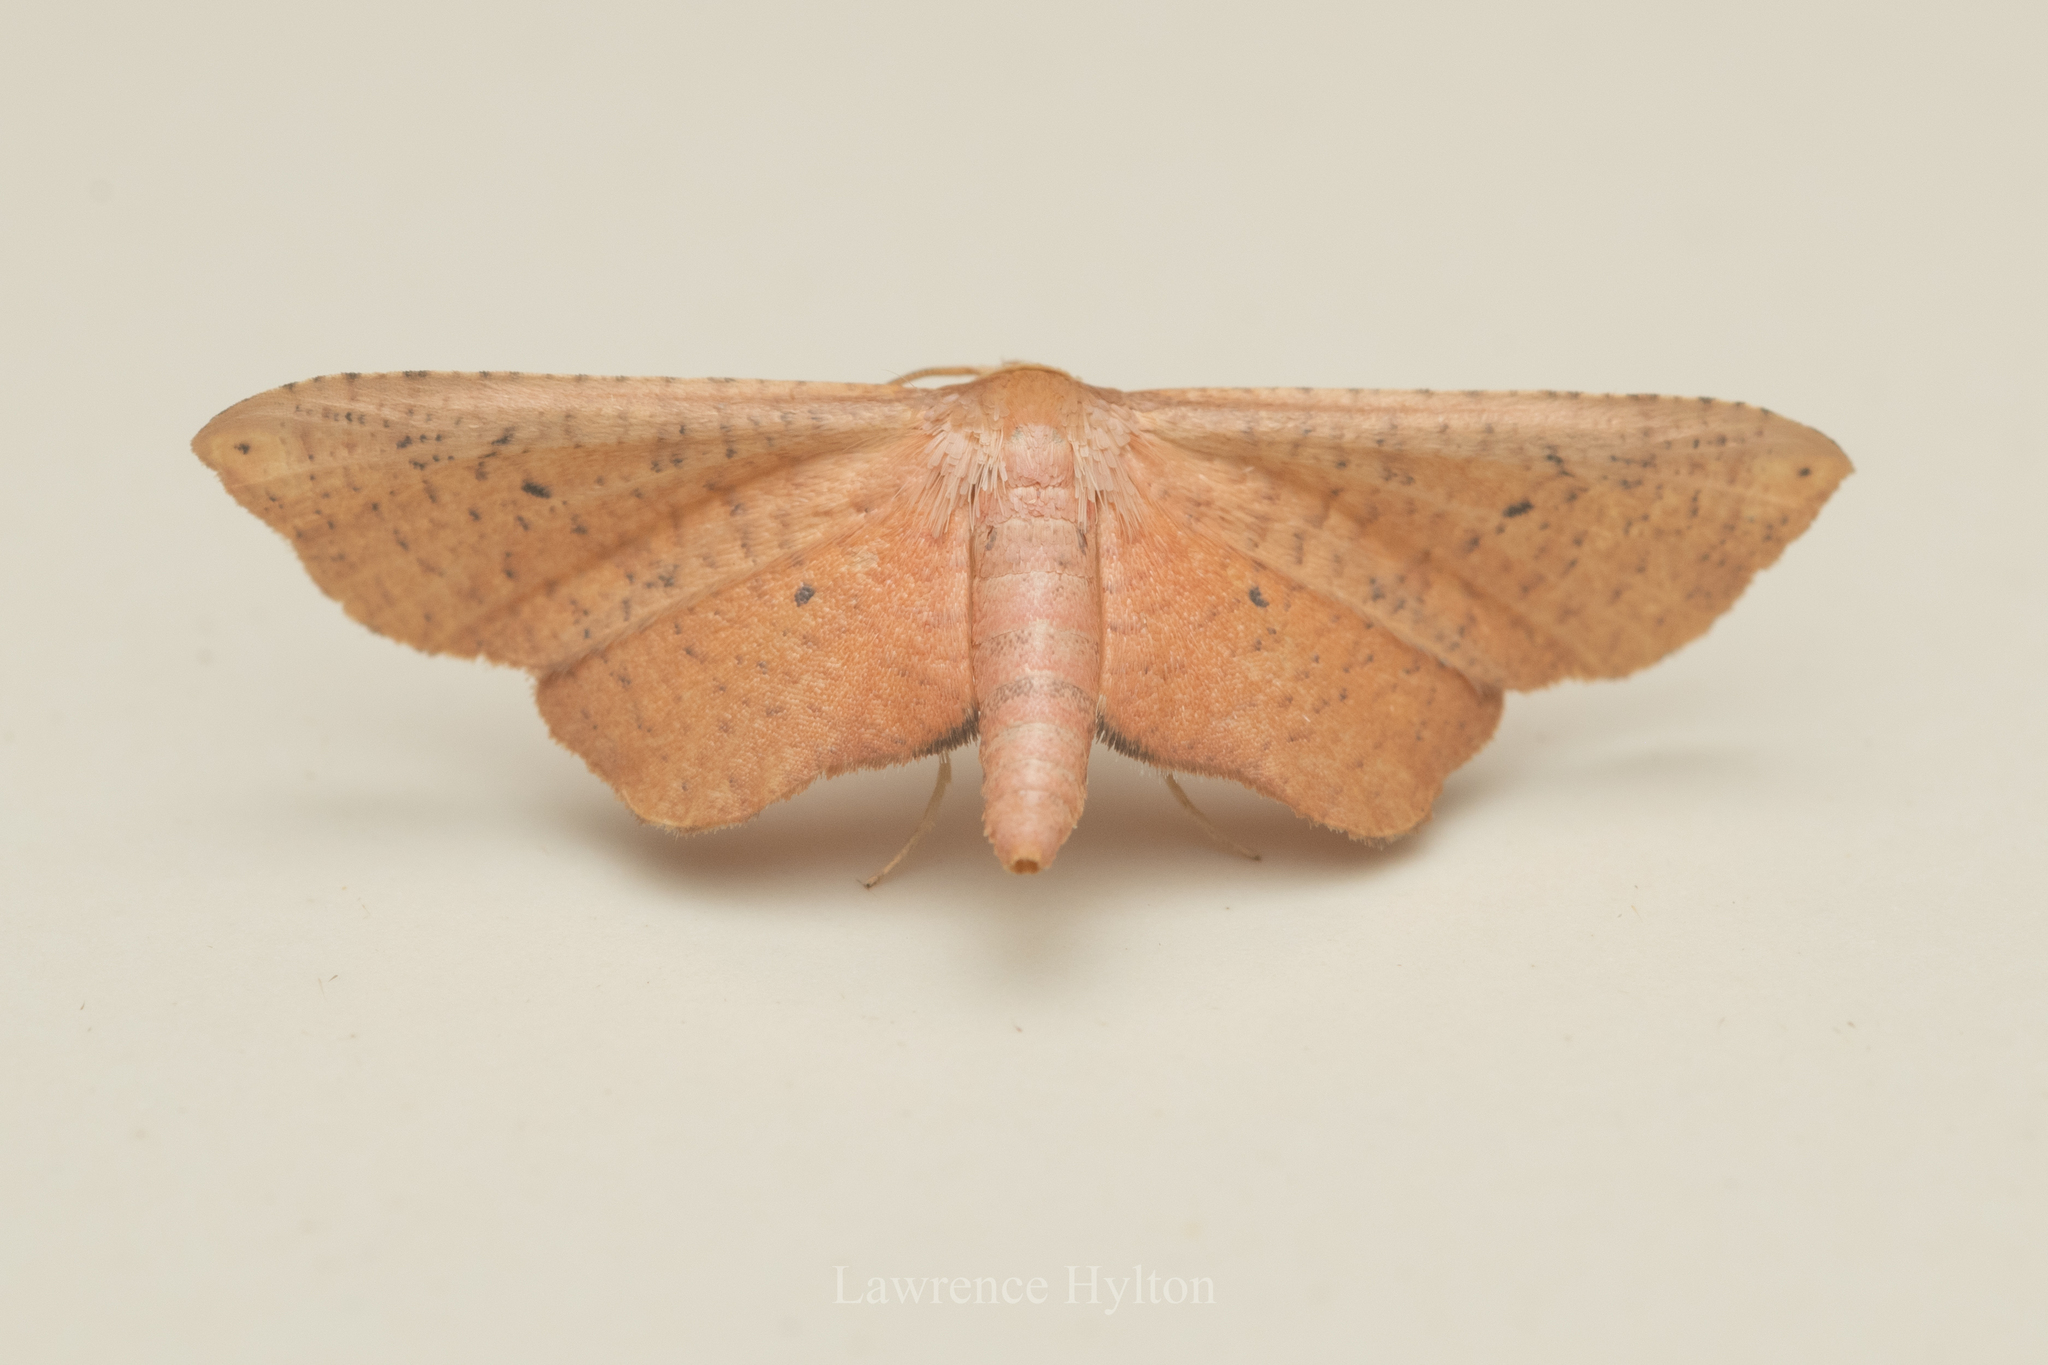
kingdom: Animalia
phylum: Arthropoda
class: Insecta
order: Lepidoptera
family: Thyrididae
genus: Hypolamprus
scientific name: Hypolamprus
